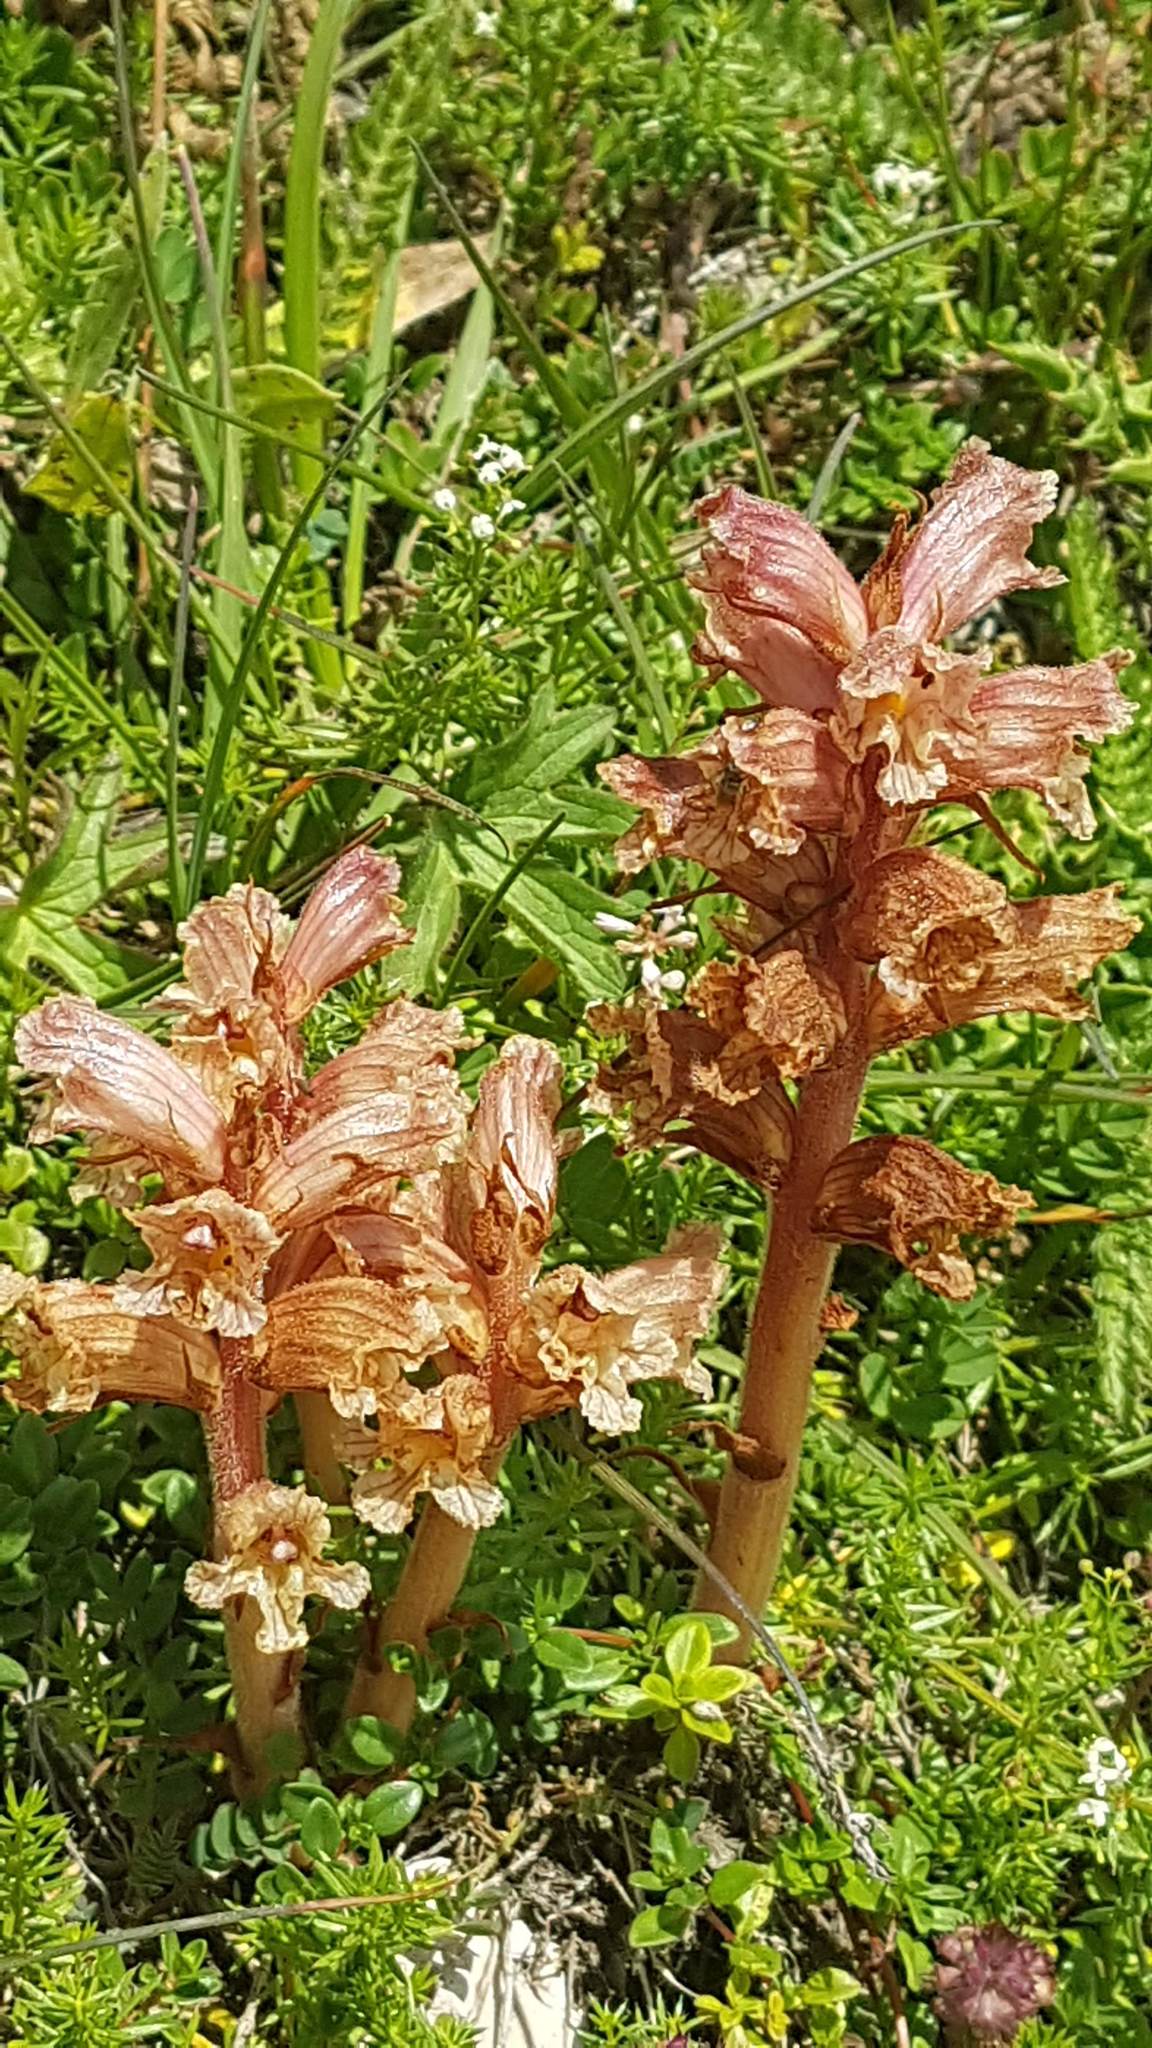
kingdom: Plantae
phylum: Tracheophyta
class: Magnoliopsida
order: Lamiales
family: Orobanchaceae
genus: Orobanche
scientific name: Orobanche alba
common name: Thyme broomrape
